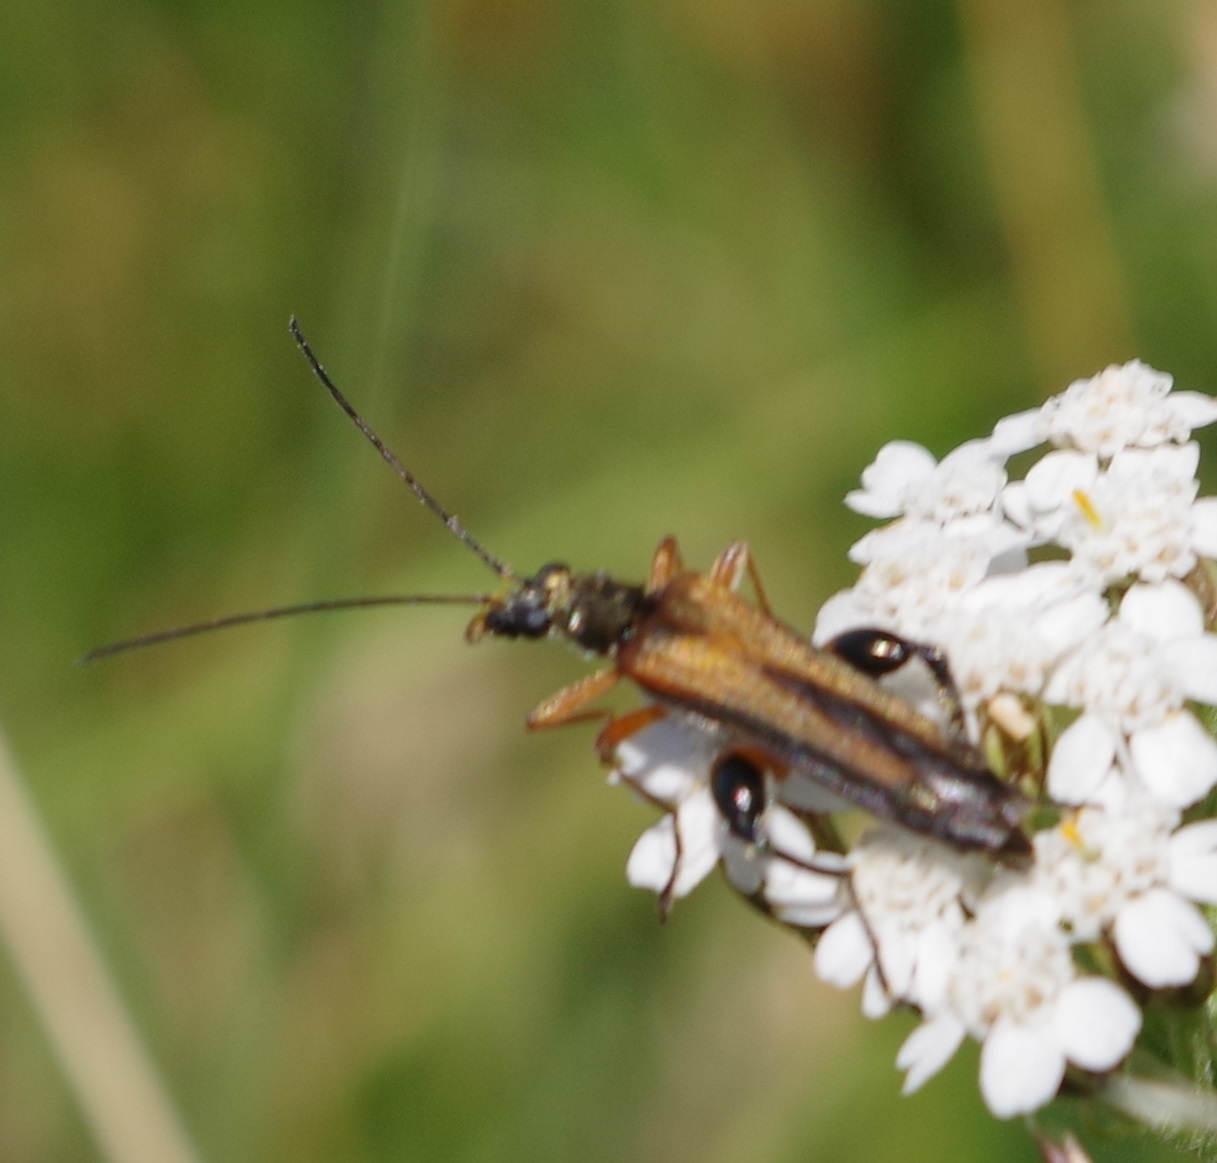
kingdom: Animalia
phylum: Arthropoda
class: Insecta
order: Coleoptera
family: Oedemeridae
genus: Oedemera
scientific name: Oedemera podagrariae
